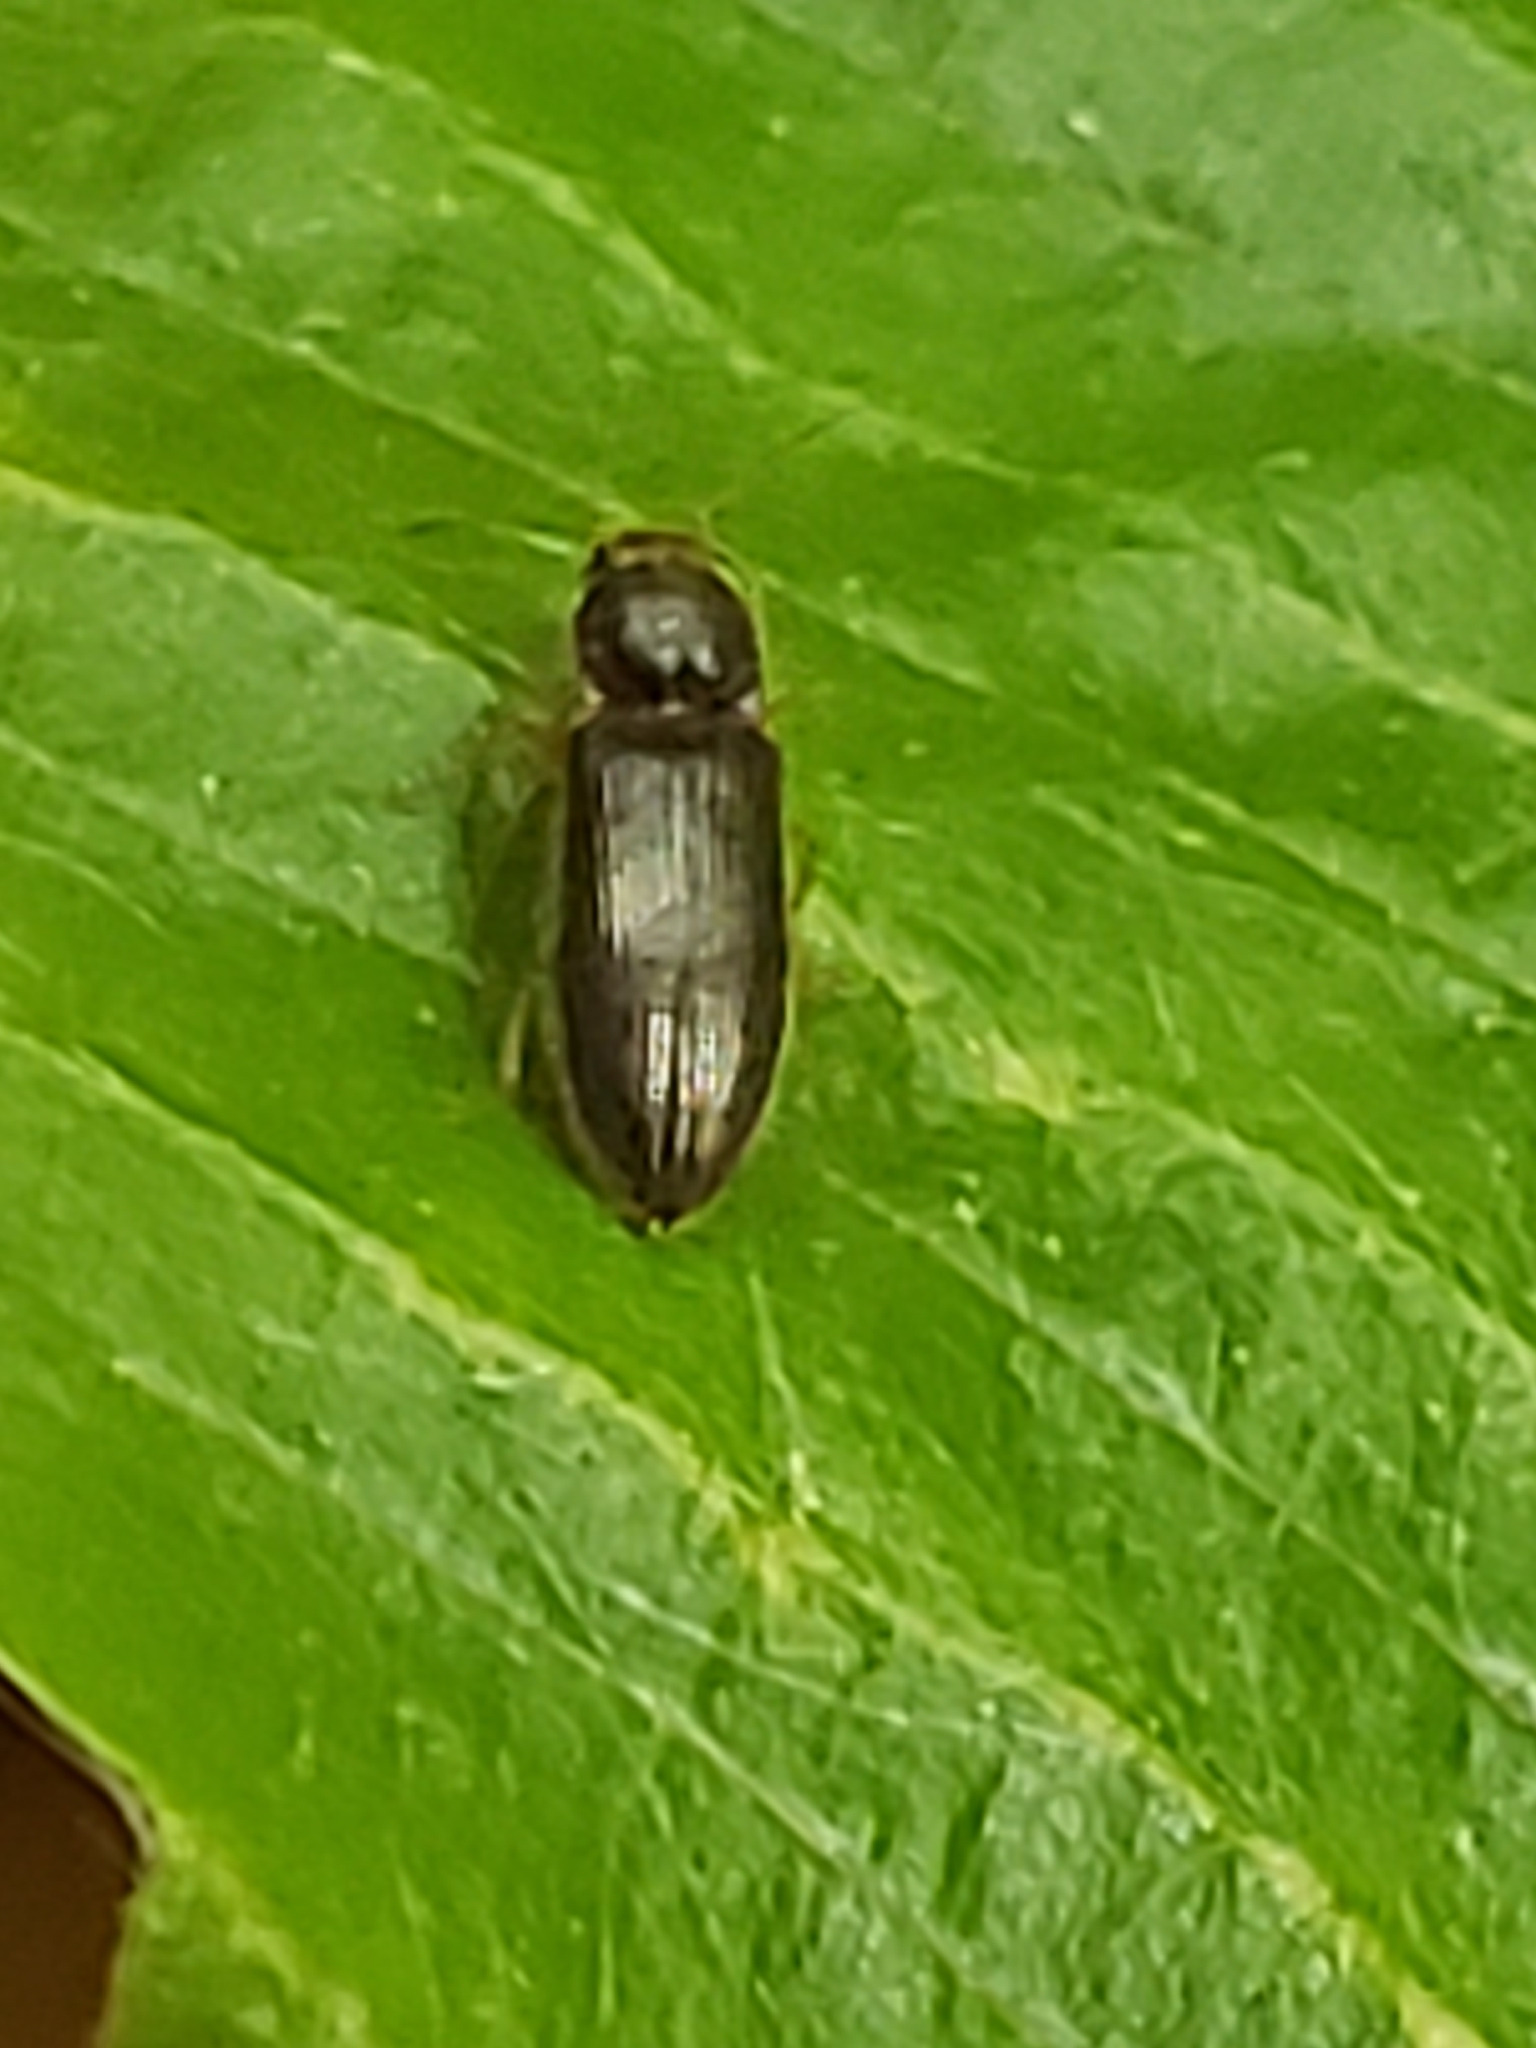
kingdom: Animalia
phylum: Arthropoda
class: Insecta
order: Coleoptera
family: Elateridae
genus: Tetralimonius
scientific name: Tetralimonius
